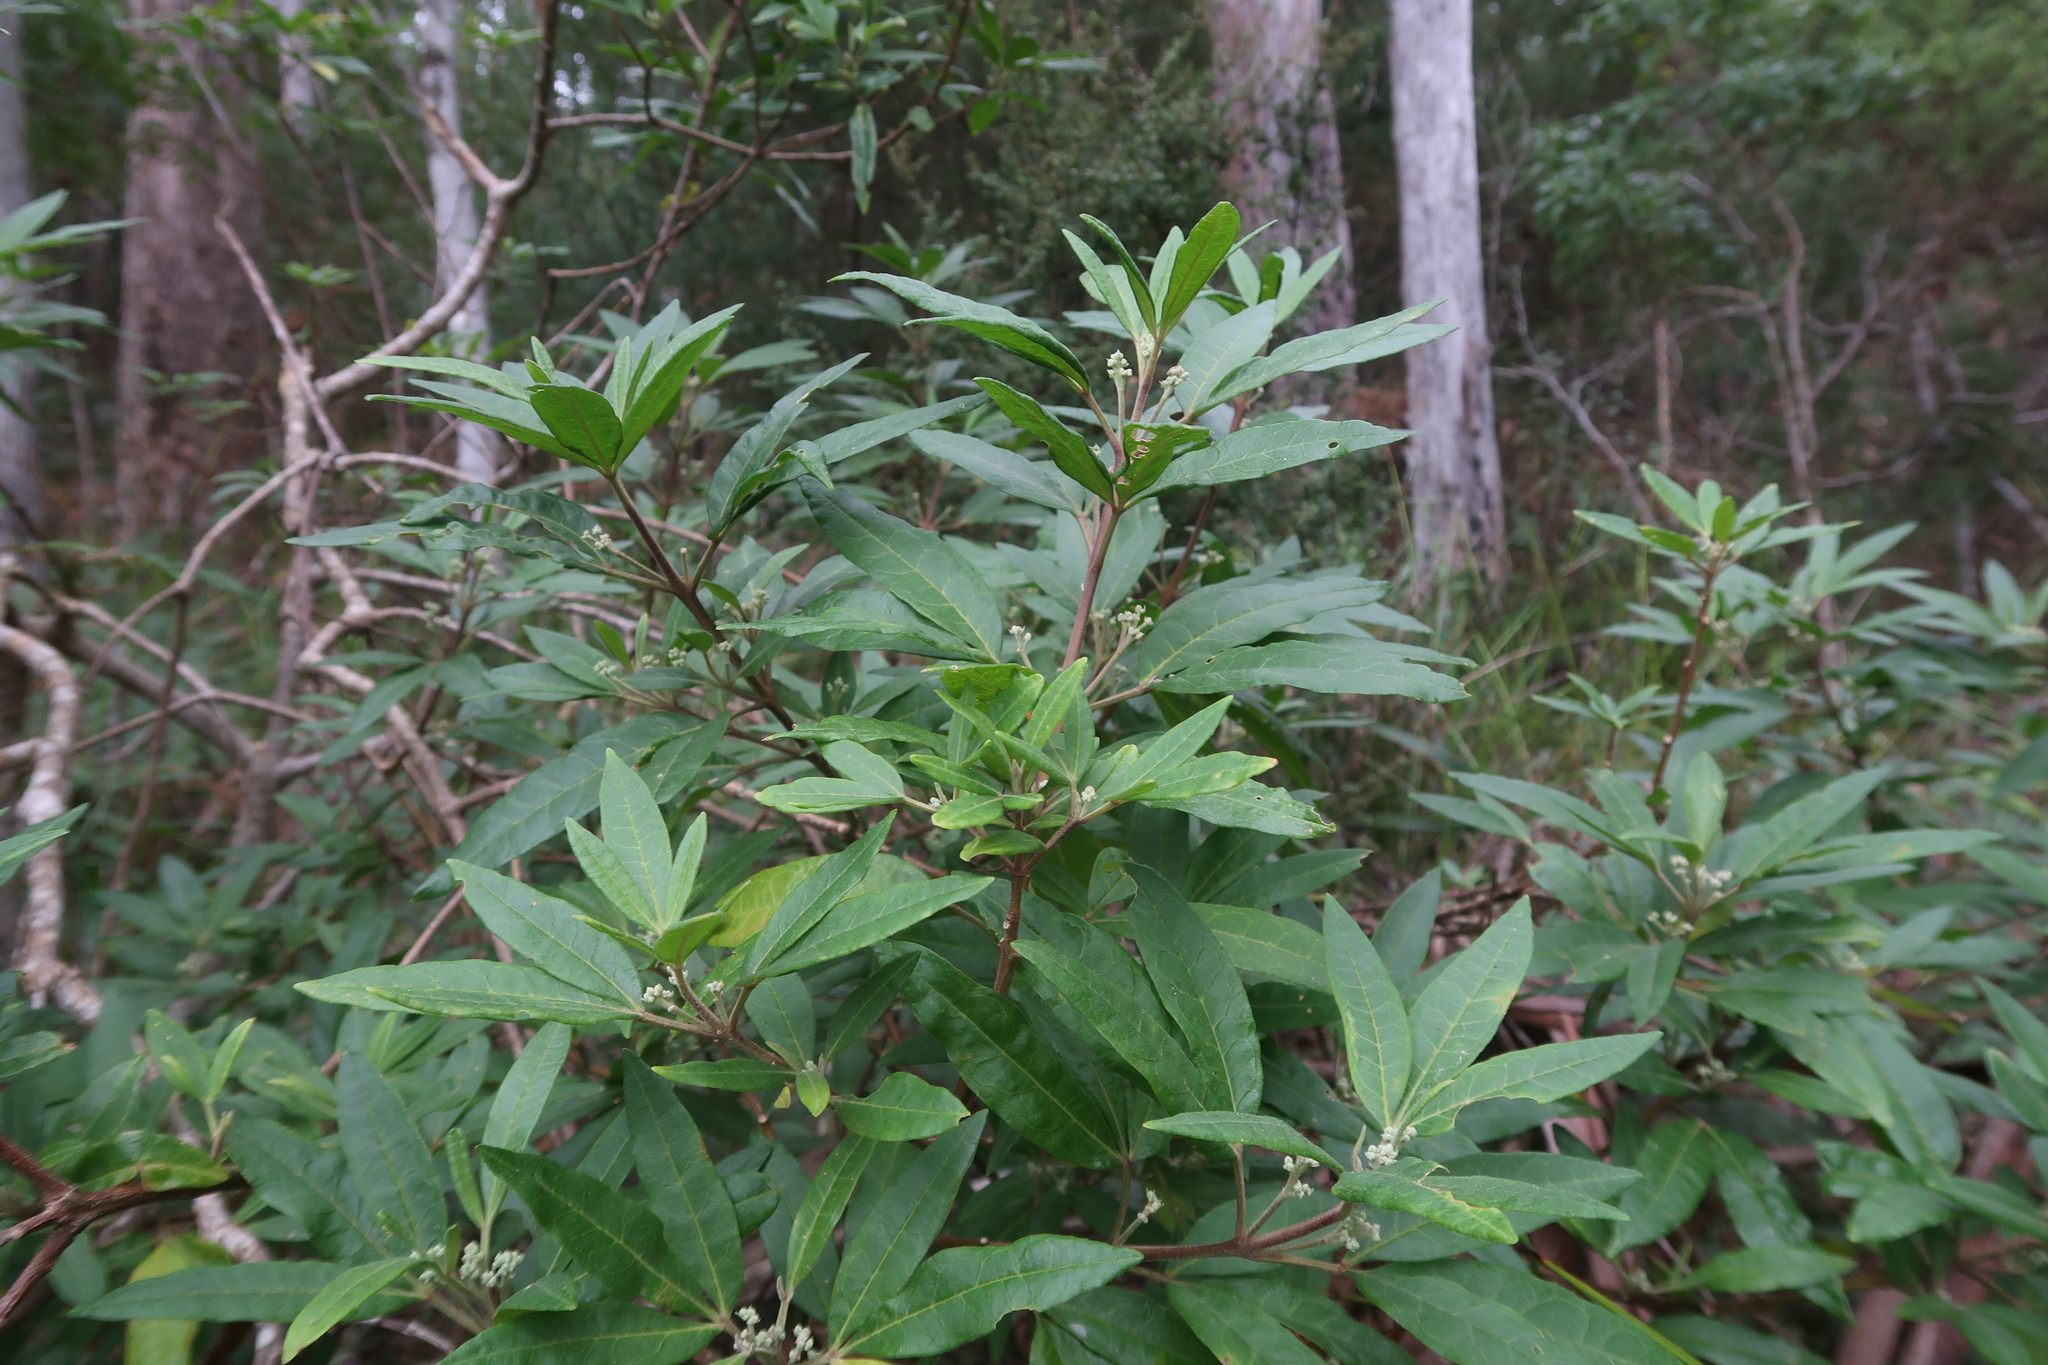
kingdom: Plantae
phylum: Tracheophyta
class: Magnoliopsida
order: Sapindales
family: Rutaceae
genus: Zieria
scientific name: Zieria arborescens
